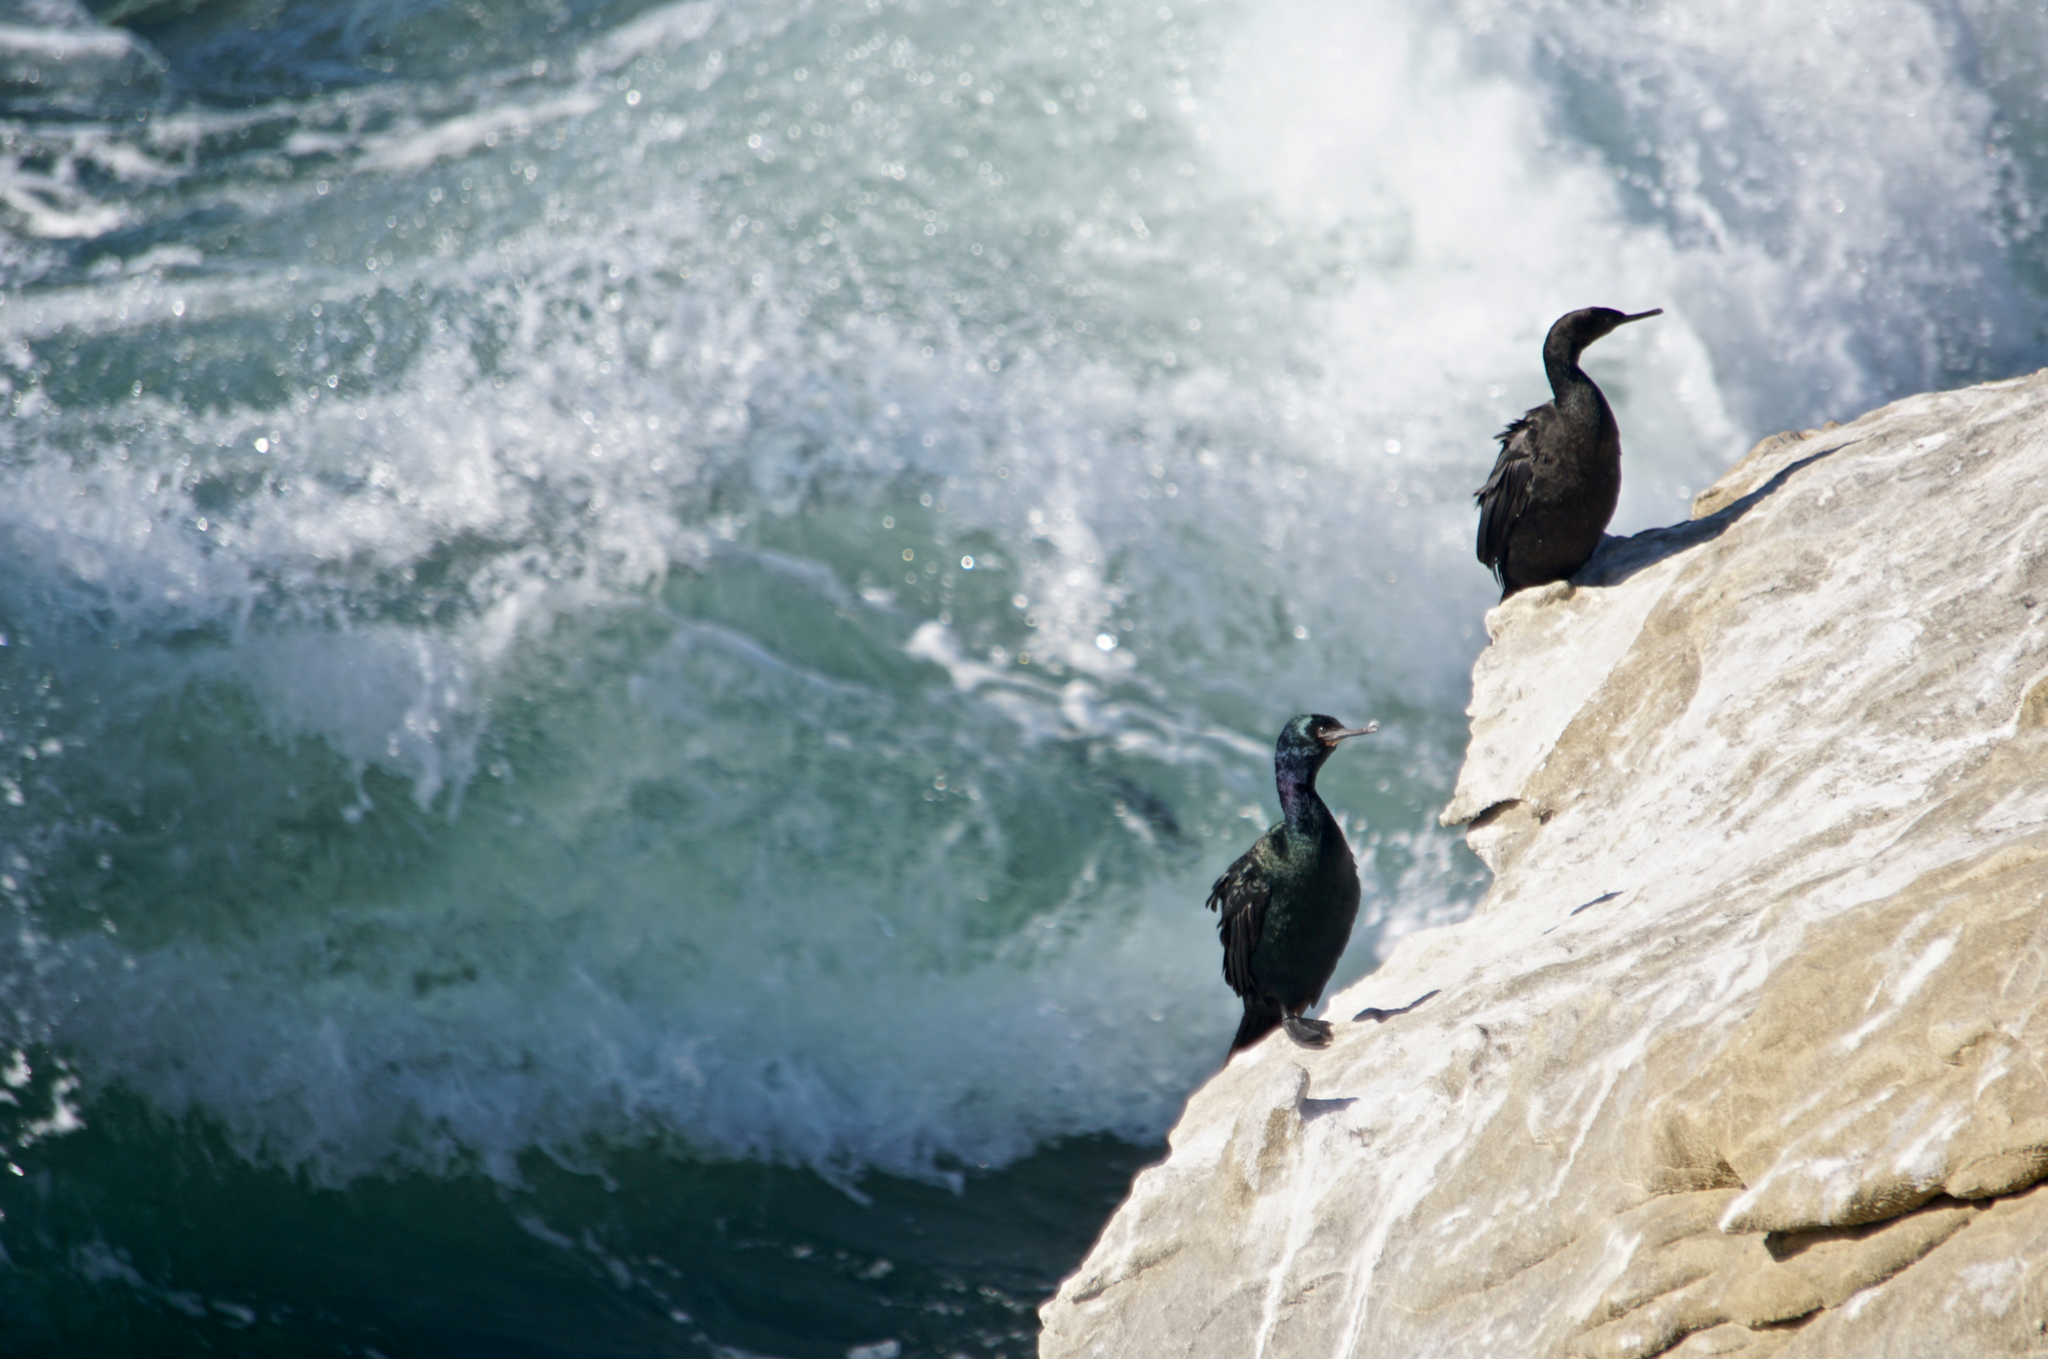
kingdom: Animalia
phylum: Chordata
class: Aves
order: Suliformes
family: Phalacrocoracidae
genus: Phalacrocorax
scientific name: Phalacrocorax pelagicus
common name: Pelagic cormorant
